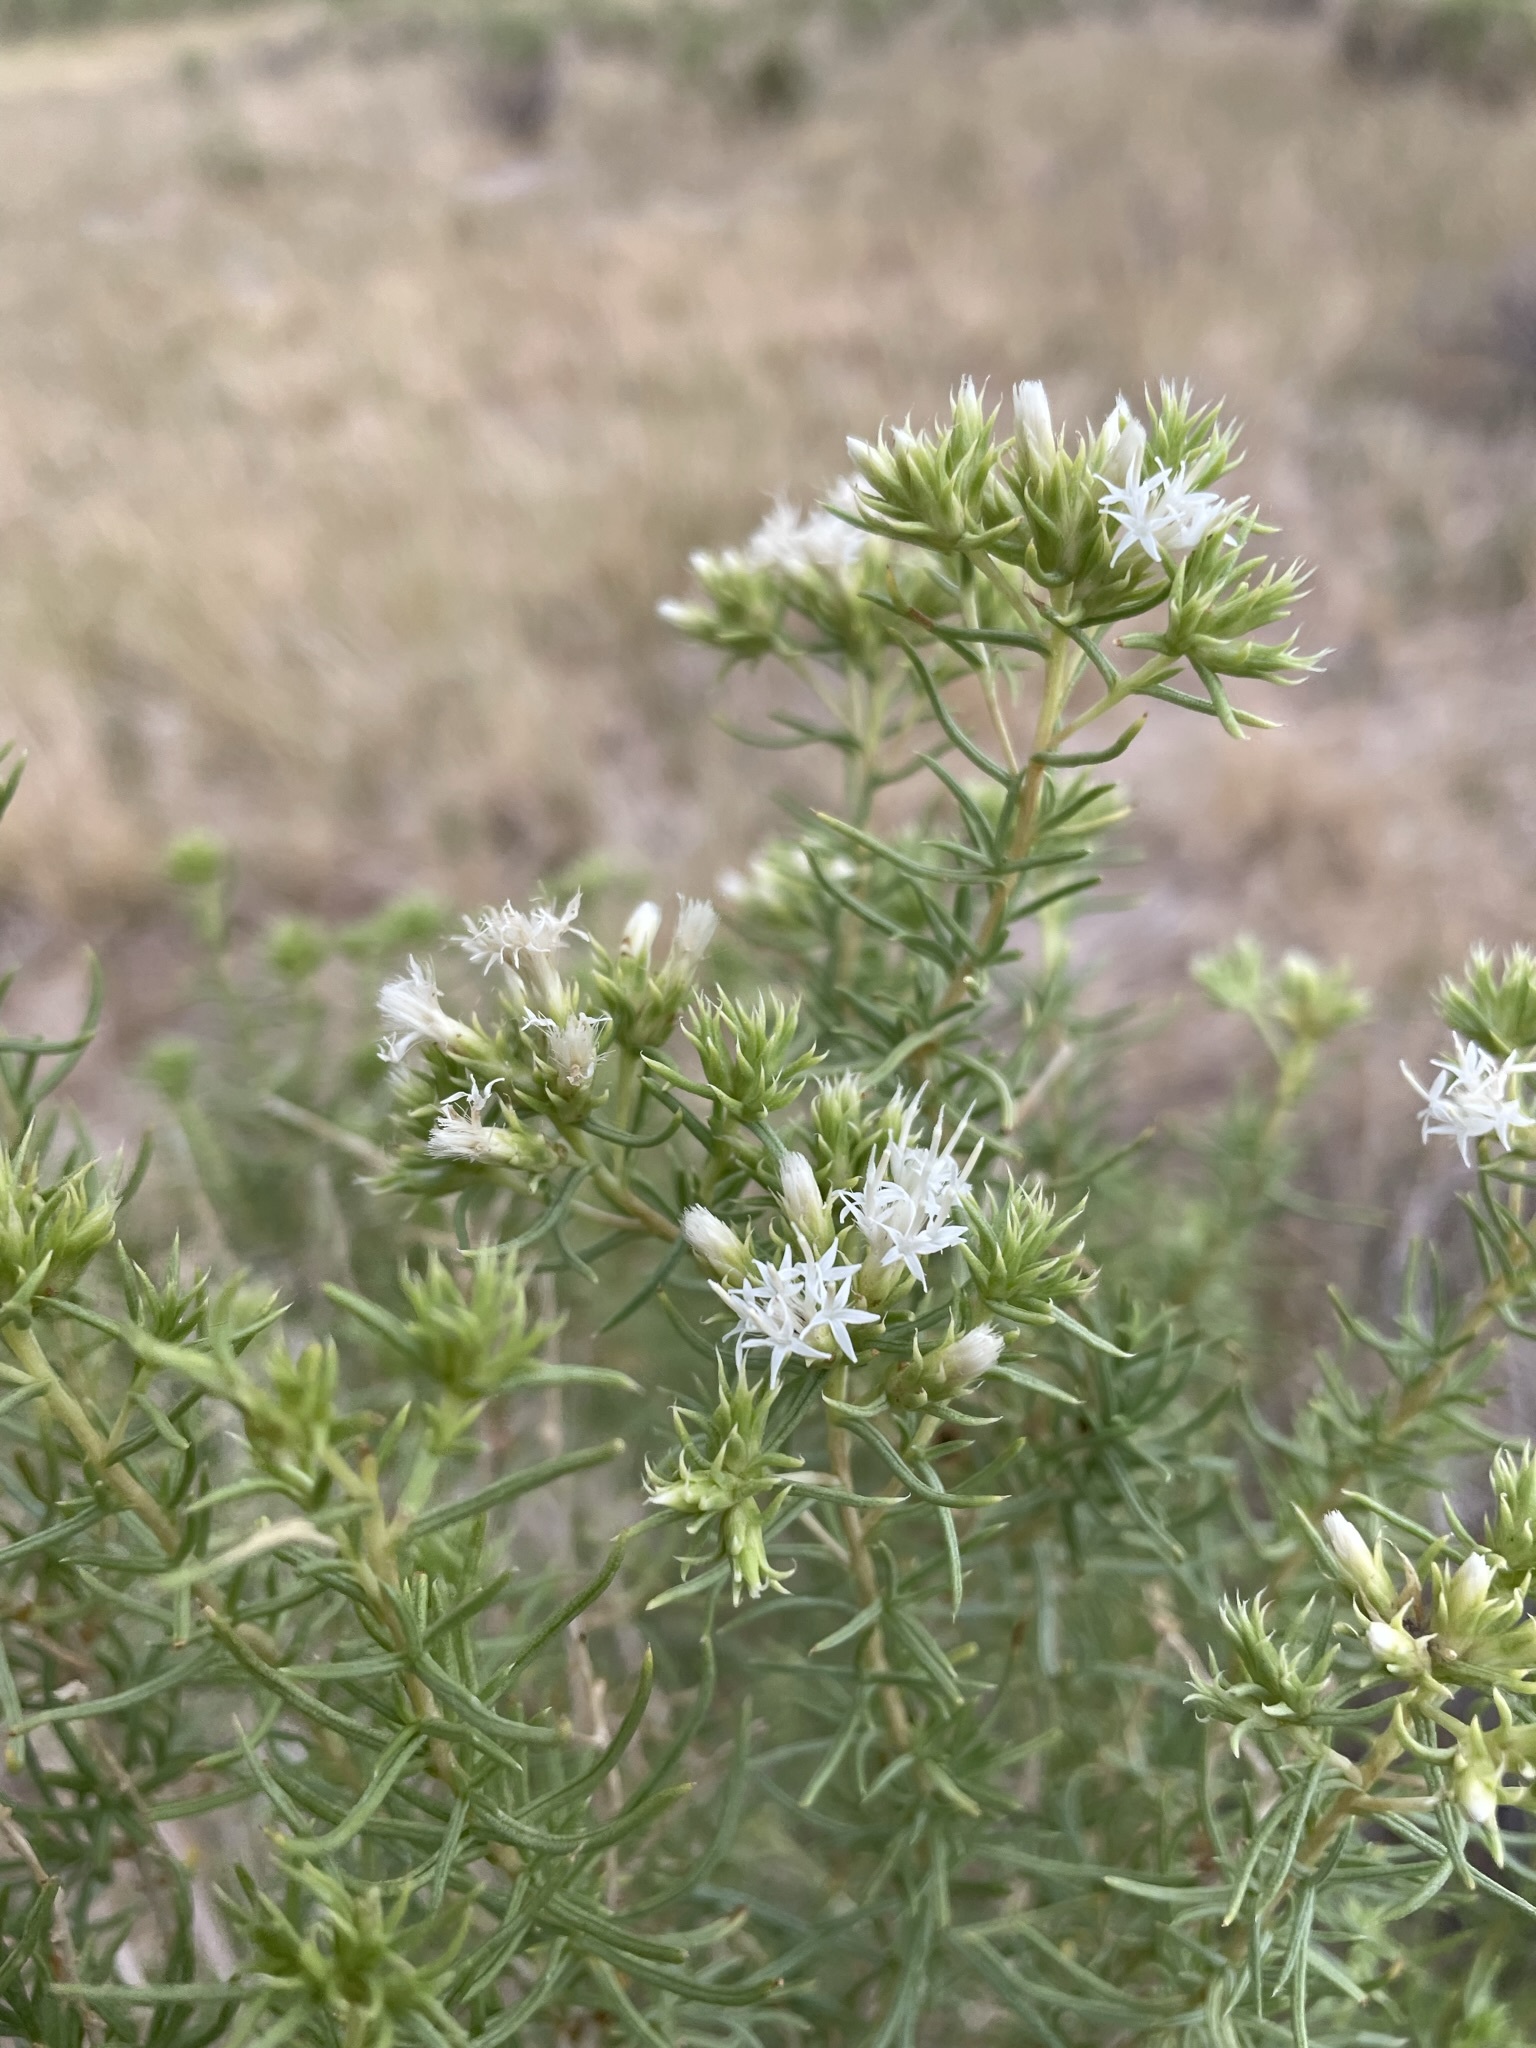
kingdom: Plantae
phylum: Tracheophyta
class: Magnoliopsida
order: Asterales
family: Asteraceae
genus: Ericameria
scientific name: Ericameria albida
